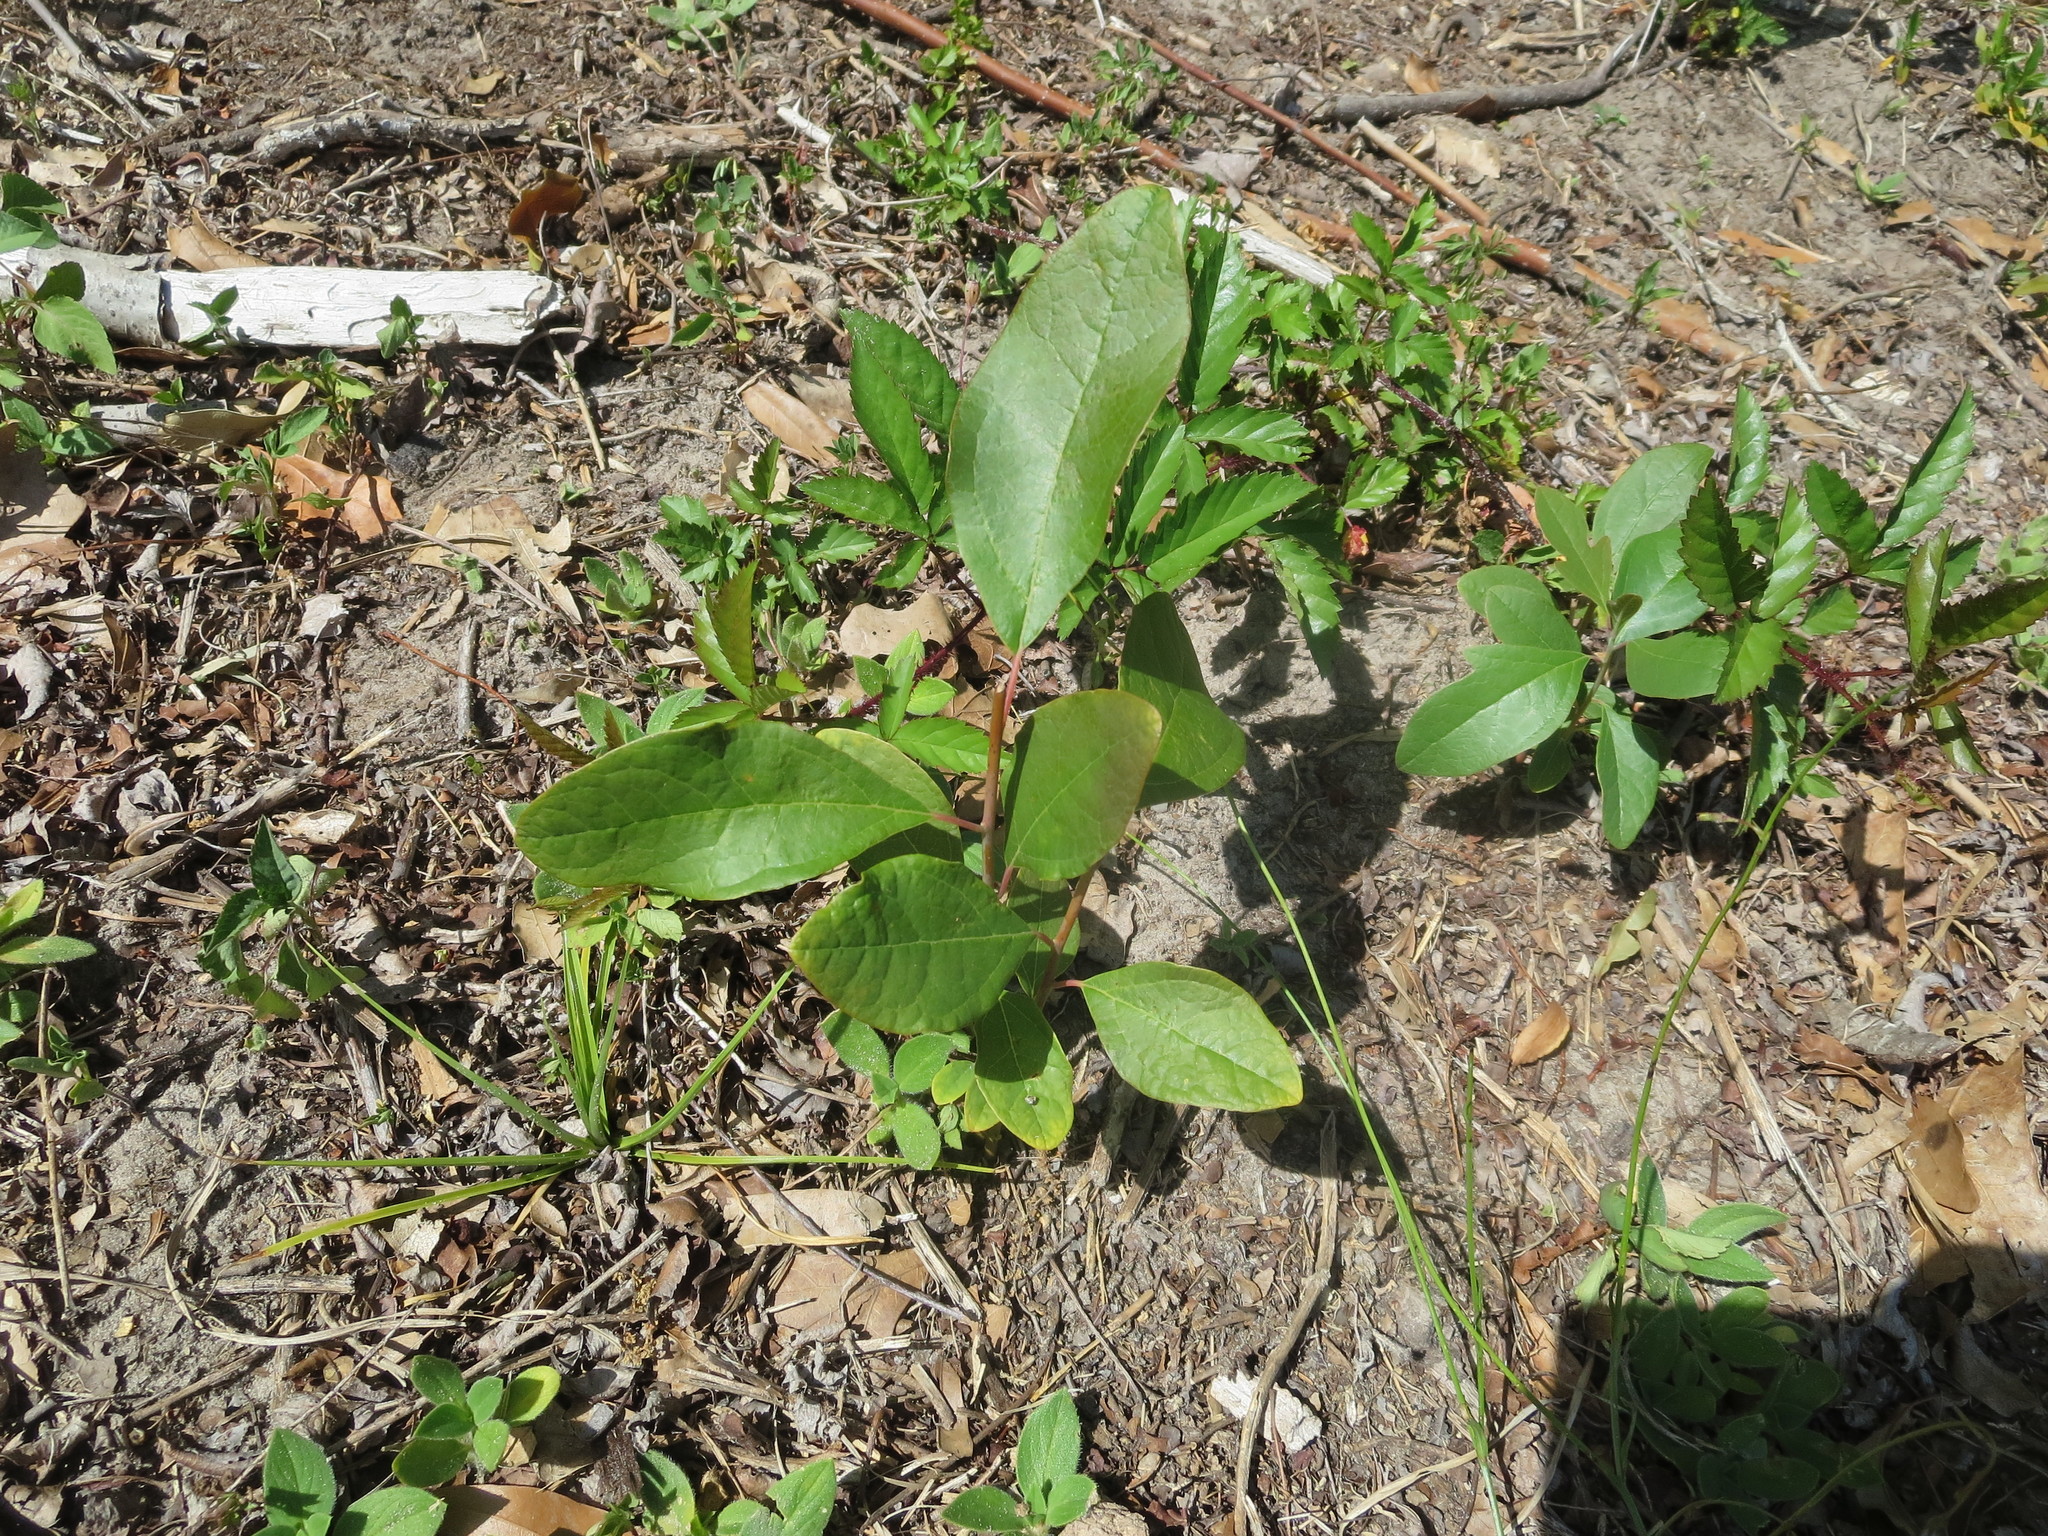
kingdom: Plantae
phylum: Tracheophyta
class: Magnoliopsida
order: Ericales
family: Ebenaceae
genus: Diospyros
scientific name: Diospyros virginiana
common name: Persimmon
